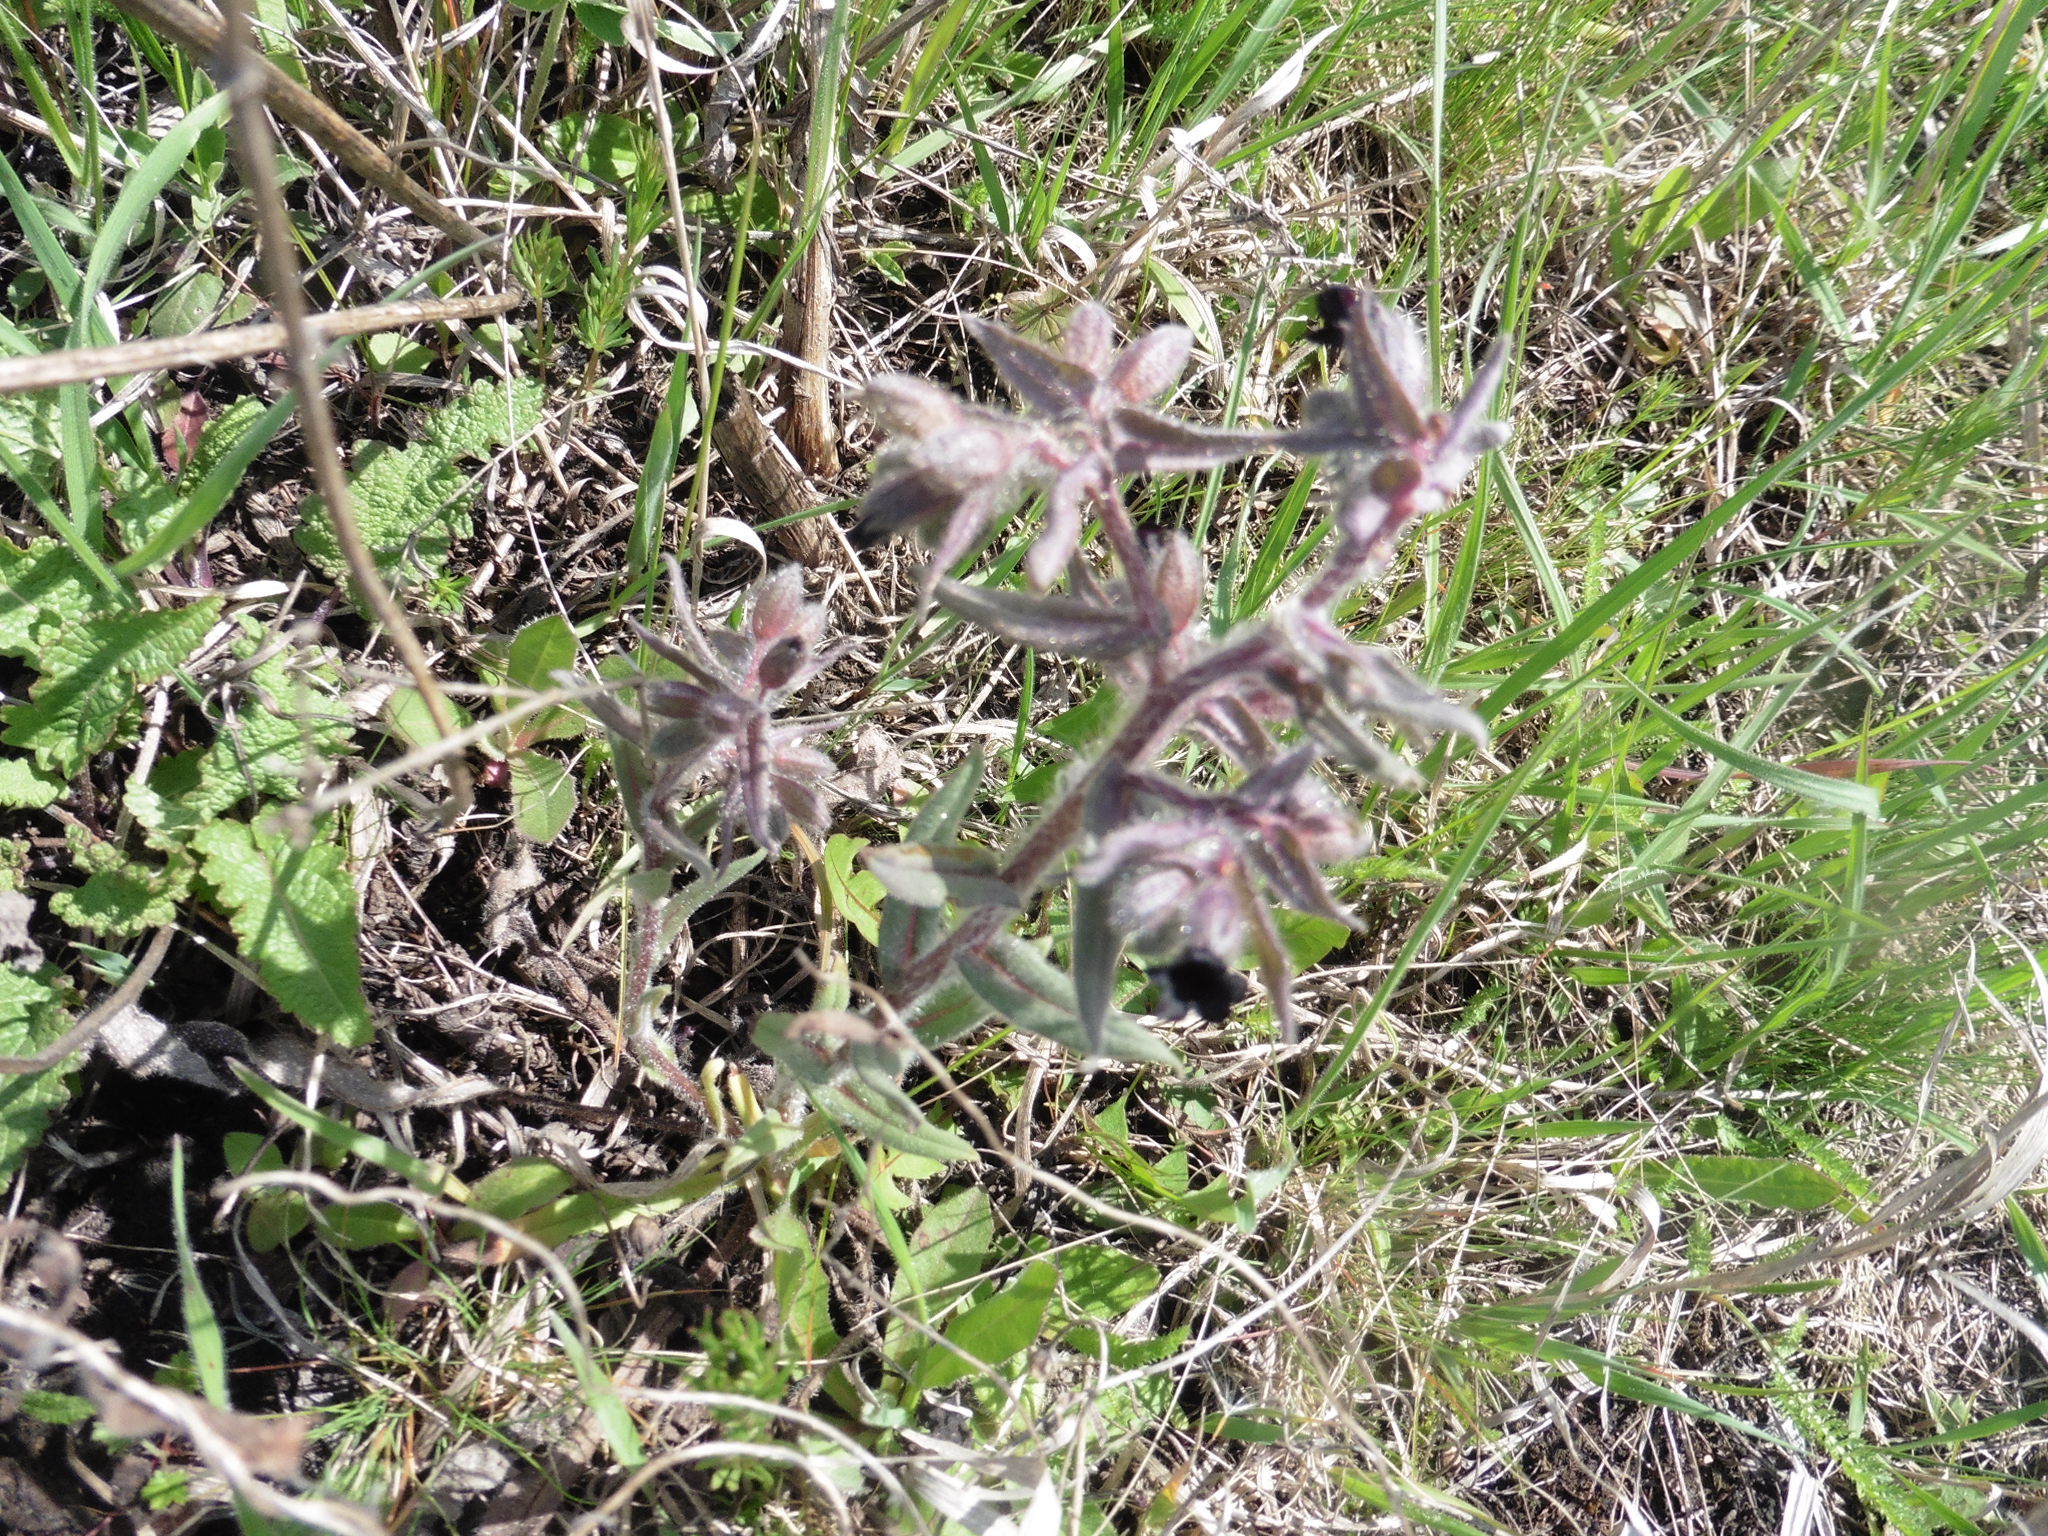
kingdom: Plantae
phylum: Tracheophyta
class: Magnoliopsida
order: Boraginales
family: Boraginaceae
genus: Nonea
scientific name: Nonea pulla
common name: Brown nonea
